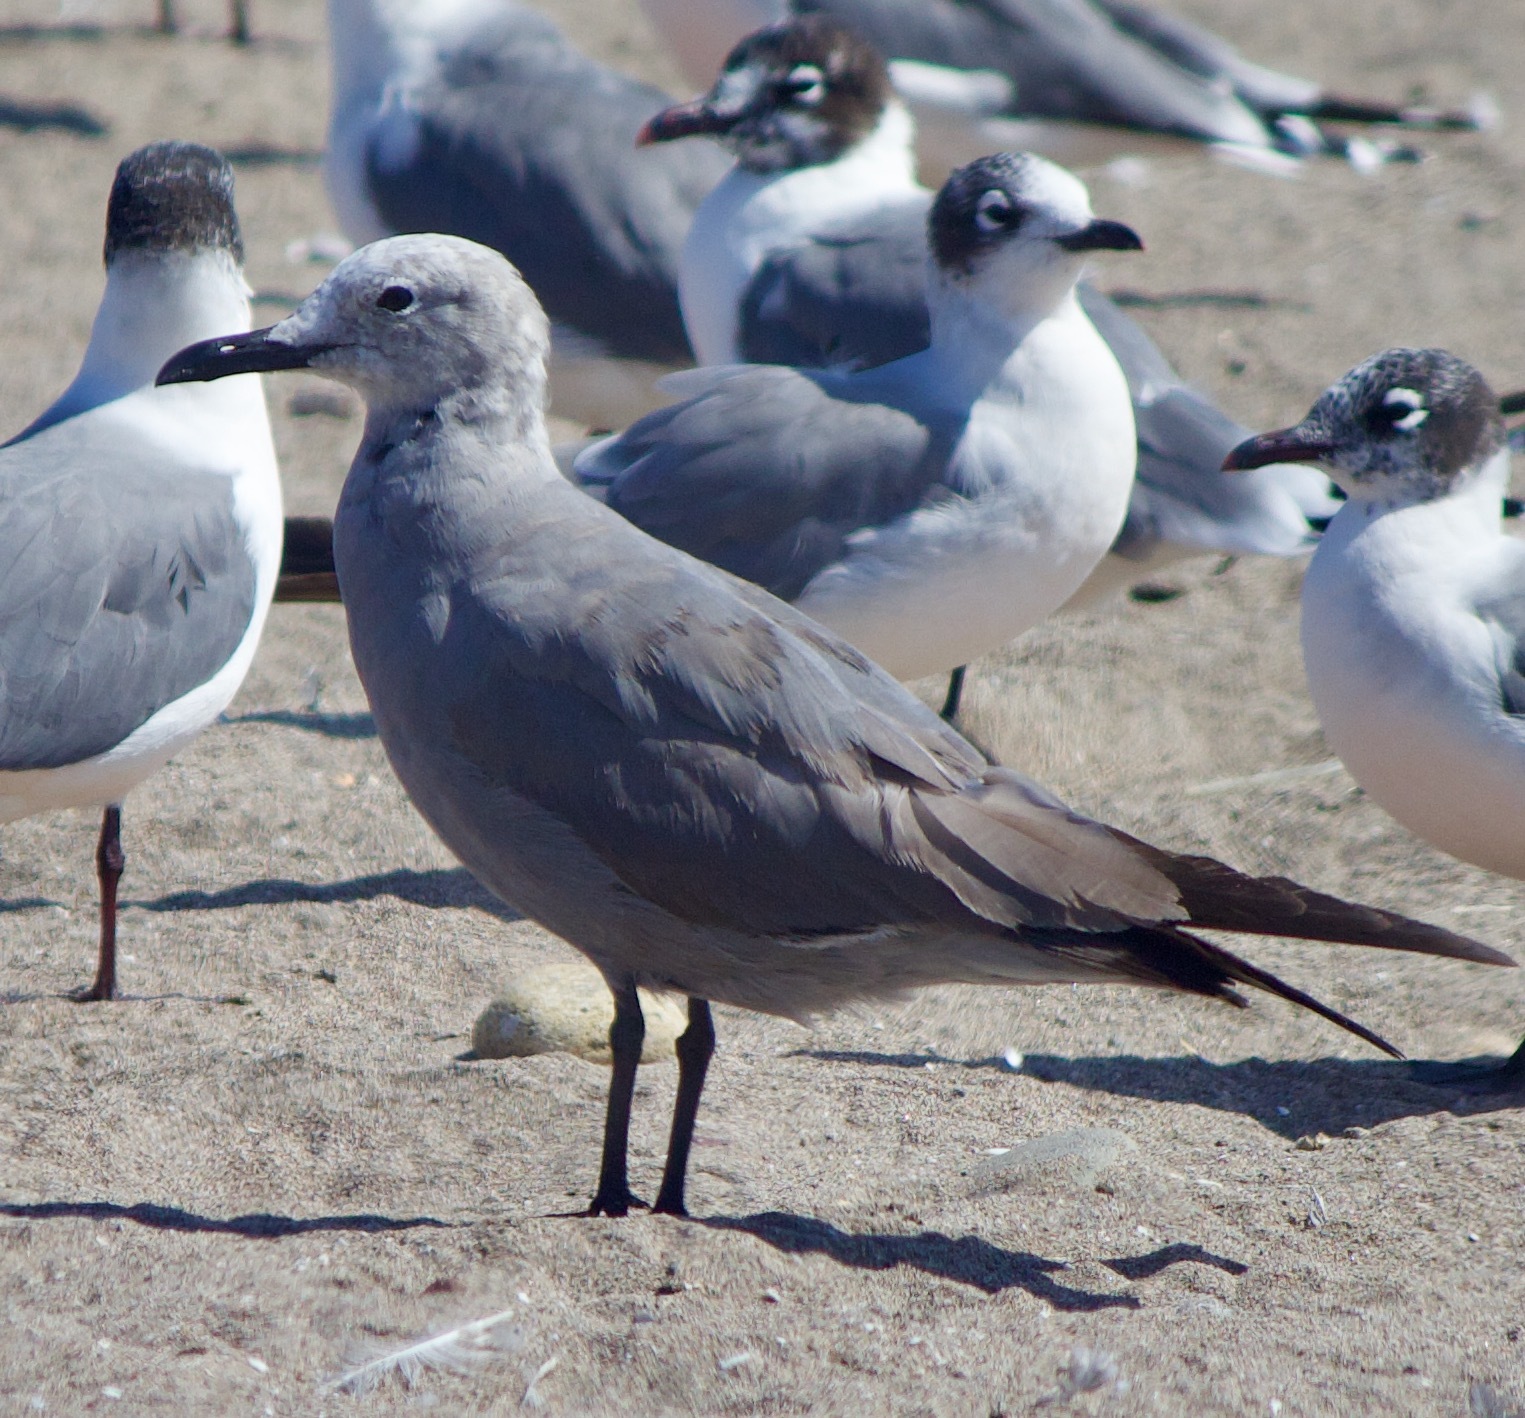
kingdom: Animalia
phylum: Chordata
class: Aves
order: Charadriiformes
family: Laridae
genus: Leucophaeus
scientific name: Leucophaeus modestus
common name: Gray gull
